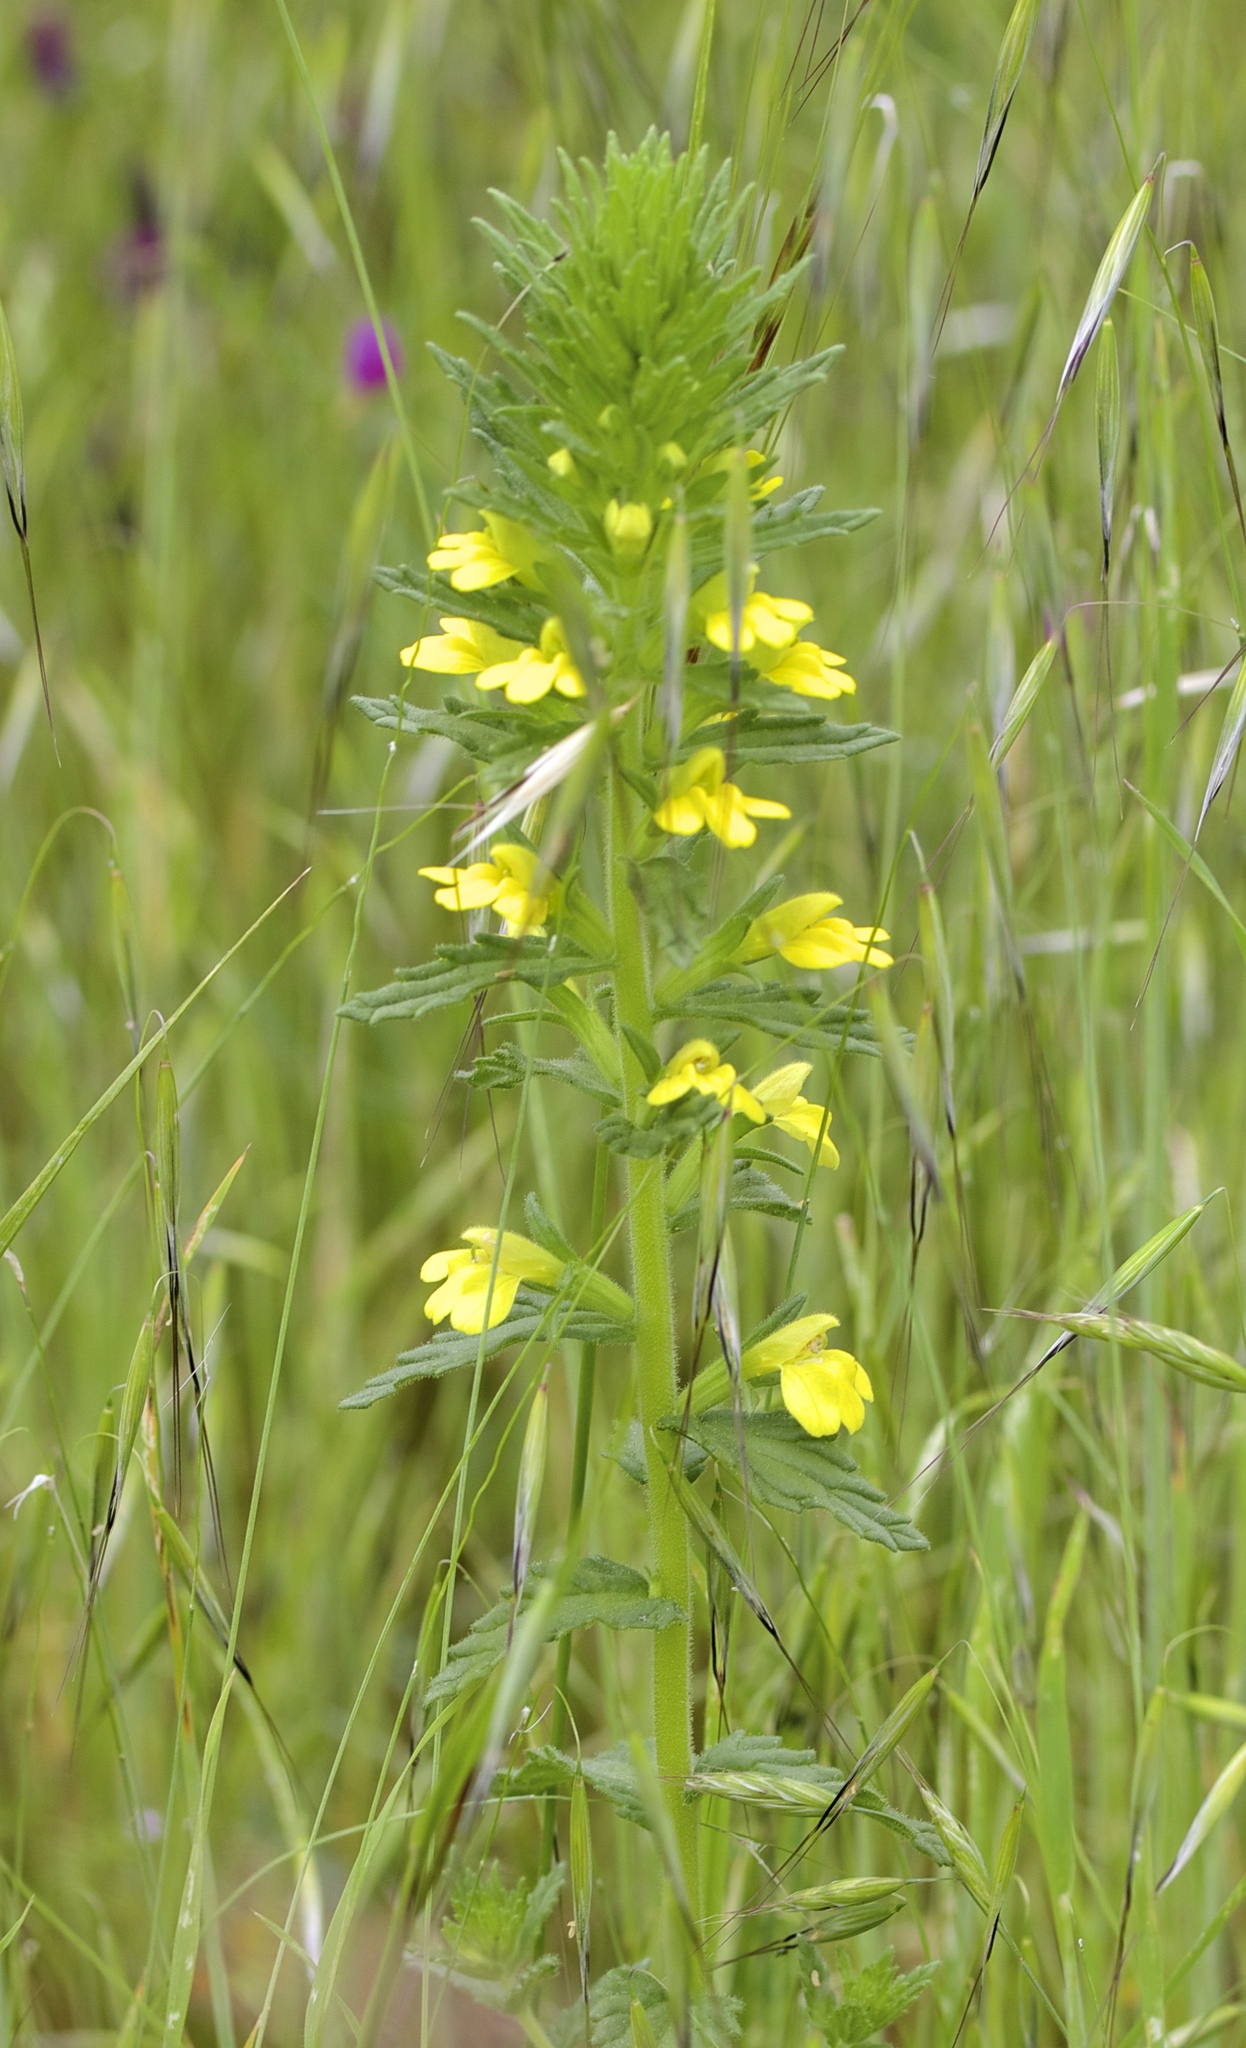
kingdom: Plantae
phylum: Tracheophyta
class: Magnoliopsida
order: Lamiales
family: Orobanchaceae
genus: Bellardia
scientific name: Bellardia viscosa
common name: Sticky parentucellia
